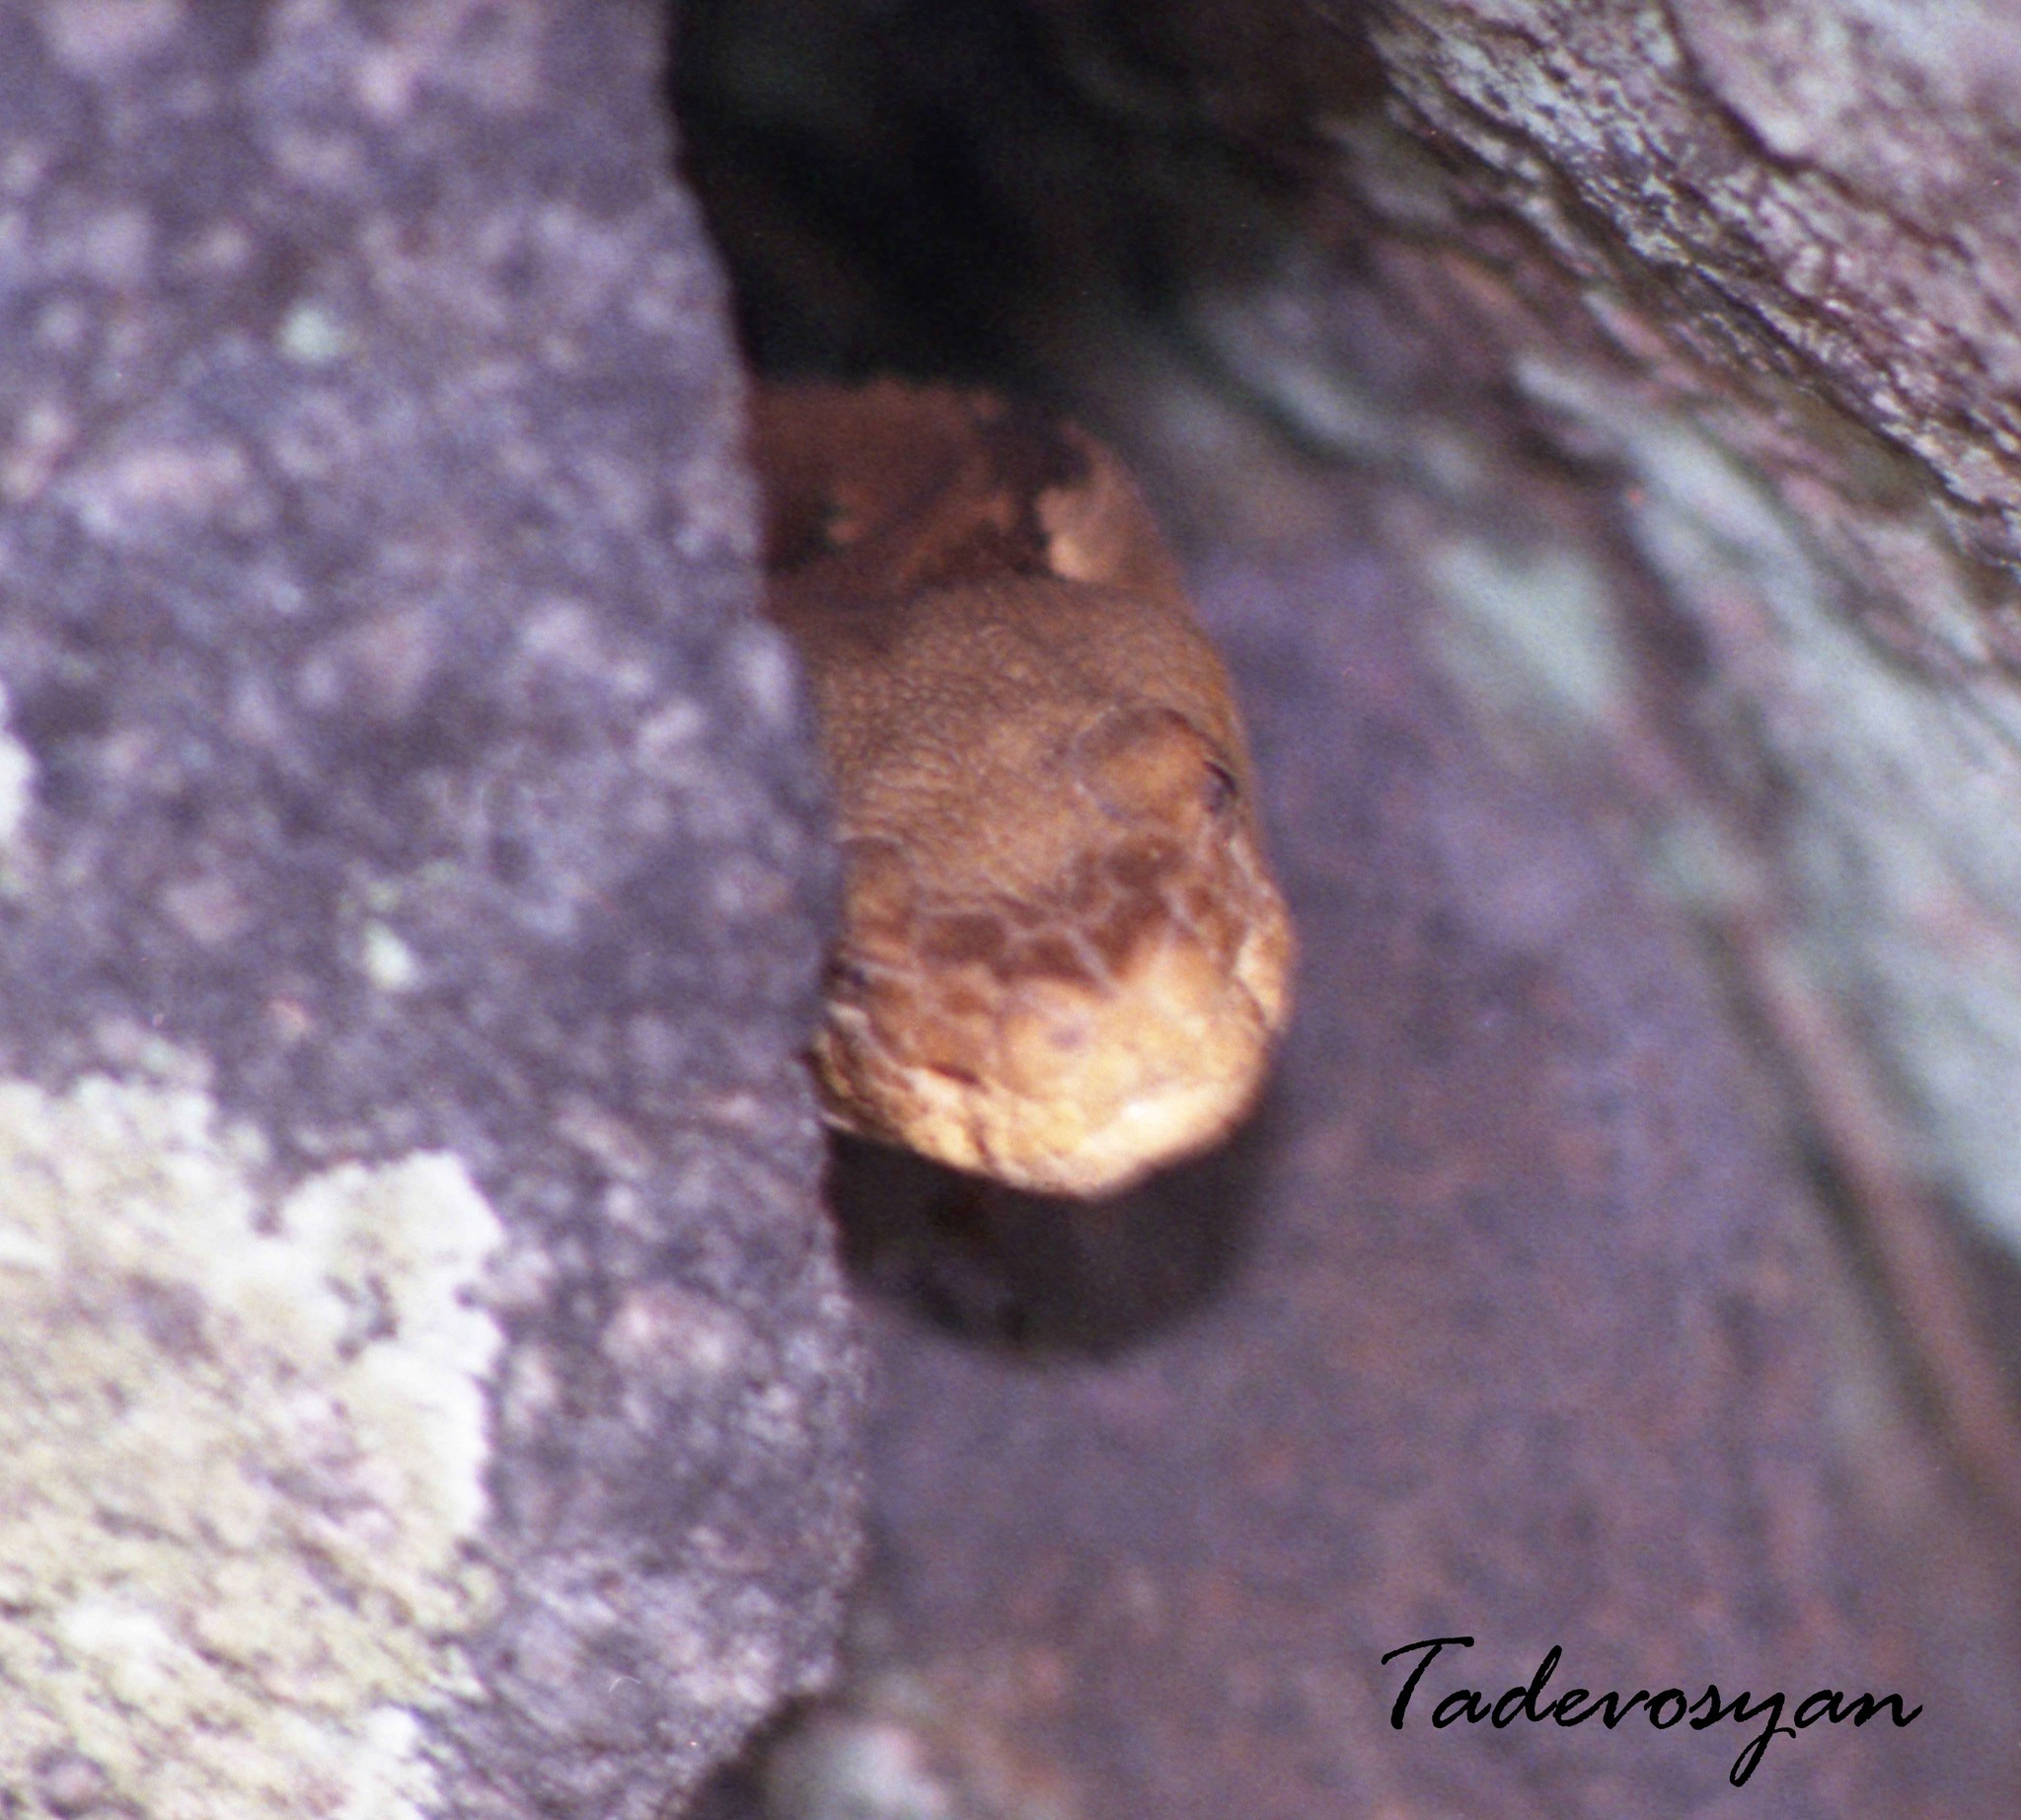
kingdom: Animalia
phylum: Chordata
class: Squamata
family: Viperidae
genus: Crotalus
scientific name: Crotalus horridus
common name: Timber rattlesnake
